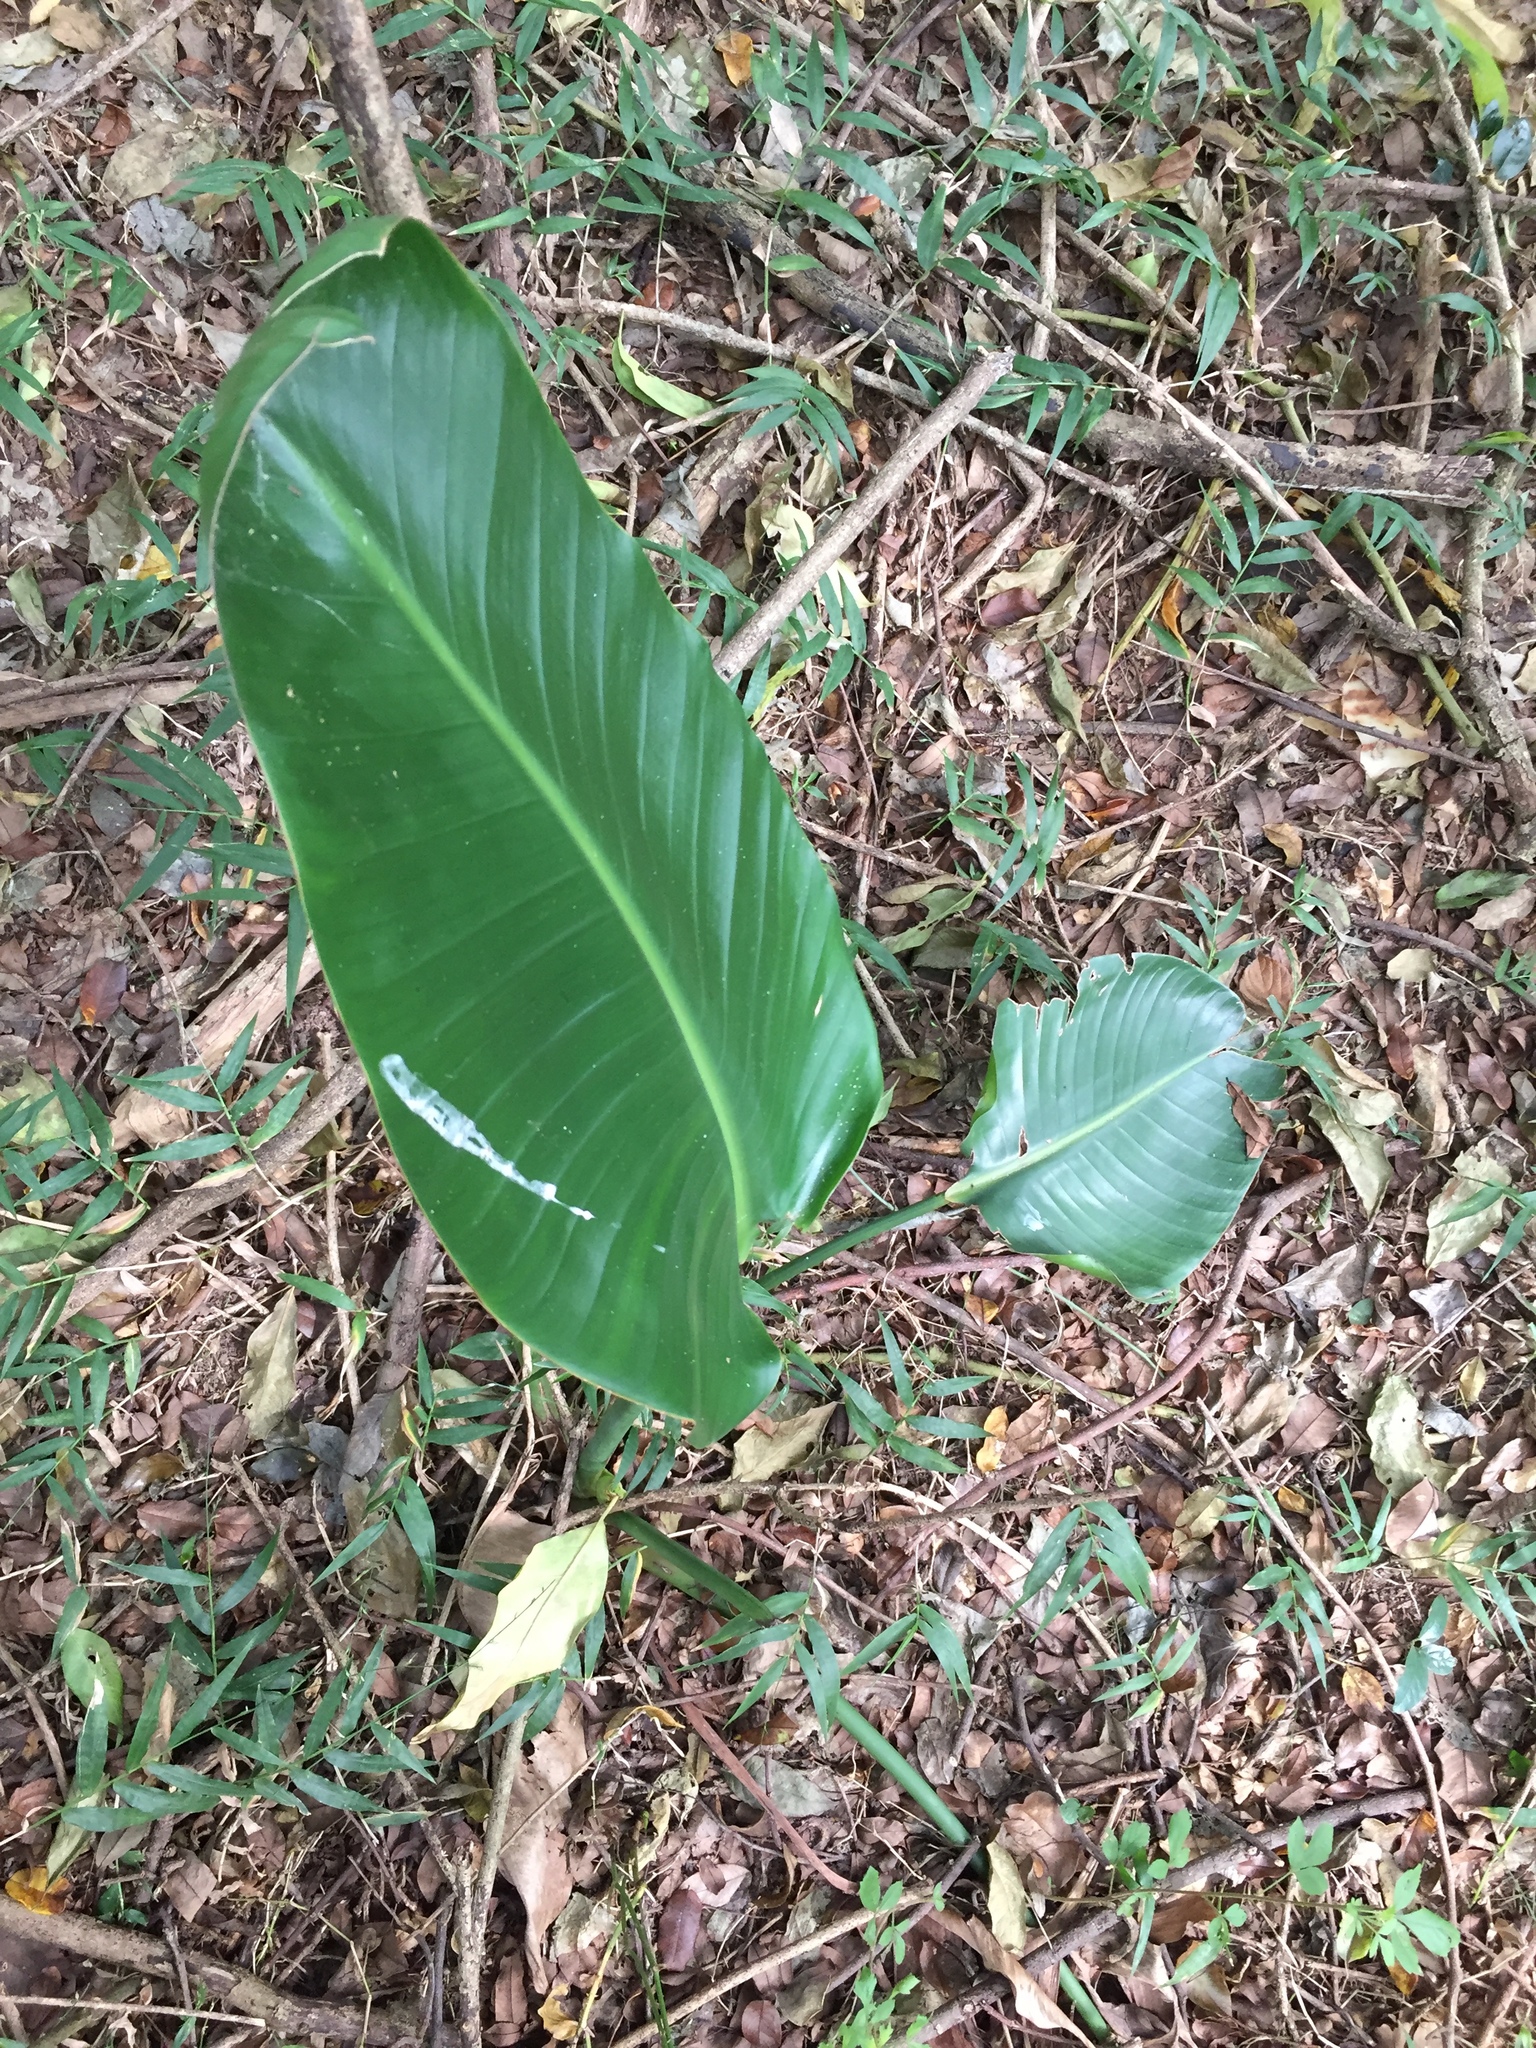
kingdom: Plantae
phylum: Tracheophyta
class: Liliopsida
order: Zingiberales
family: Strelitziaceae
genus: Strelitzia
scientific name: Strelitzia nicolai
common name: Bird-of-paradise tree
